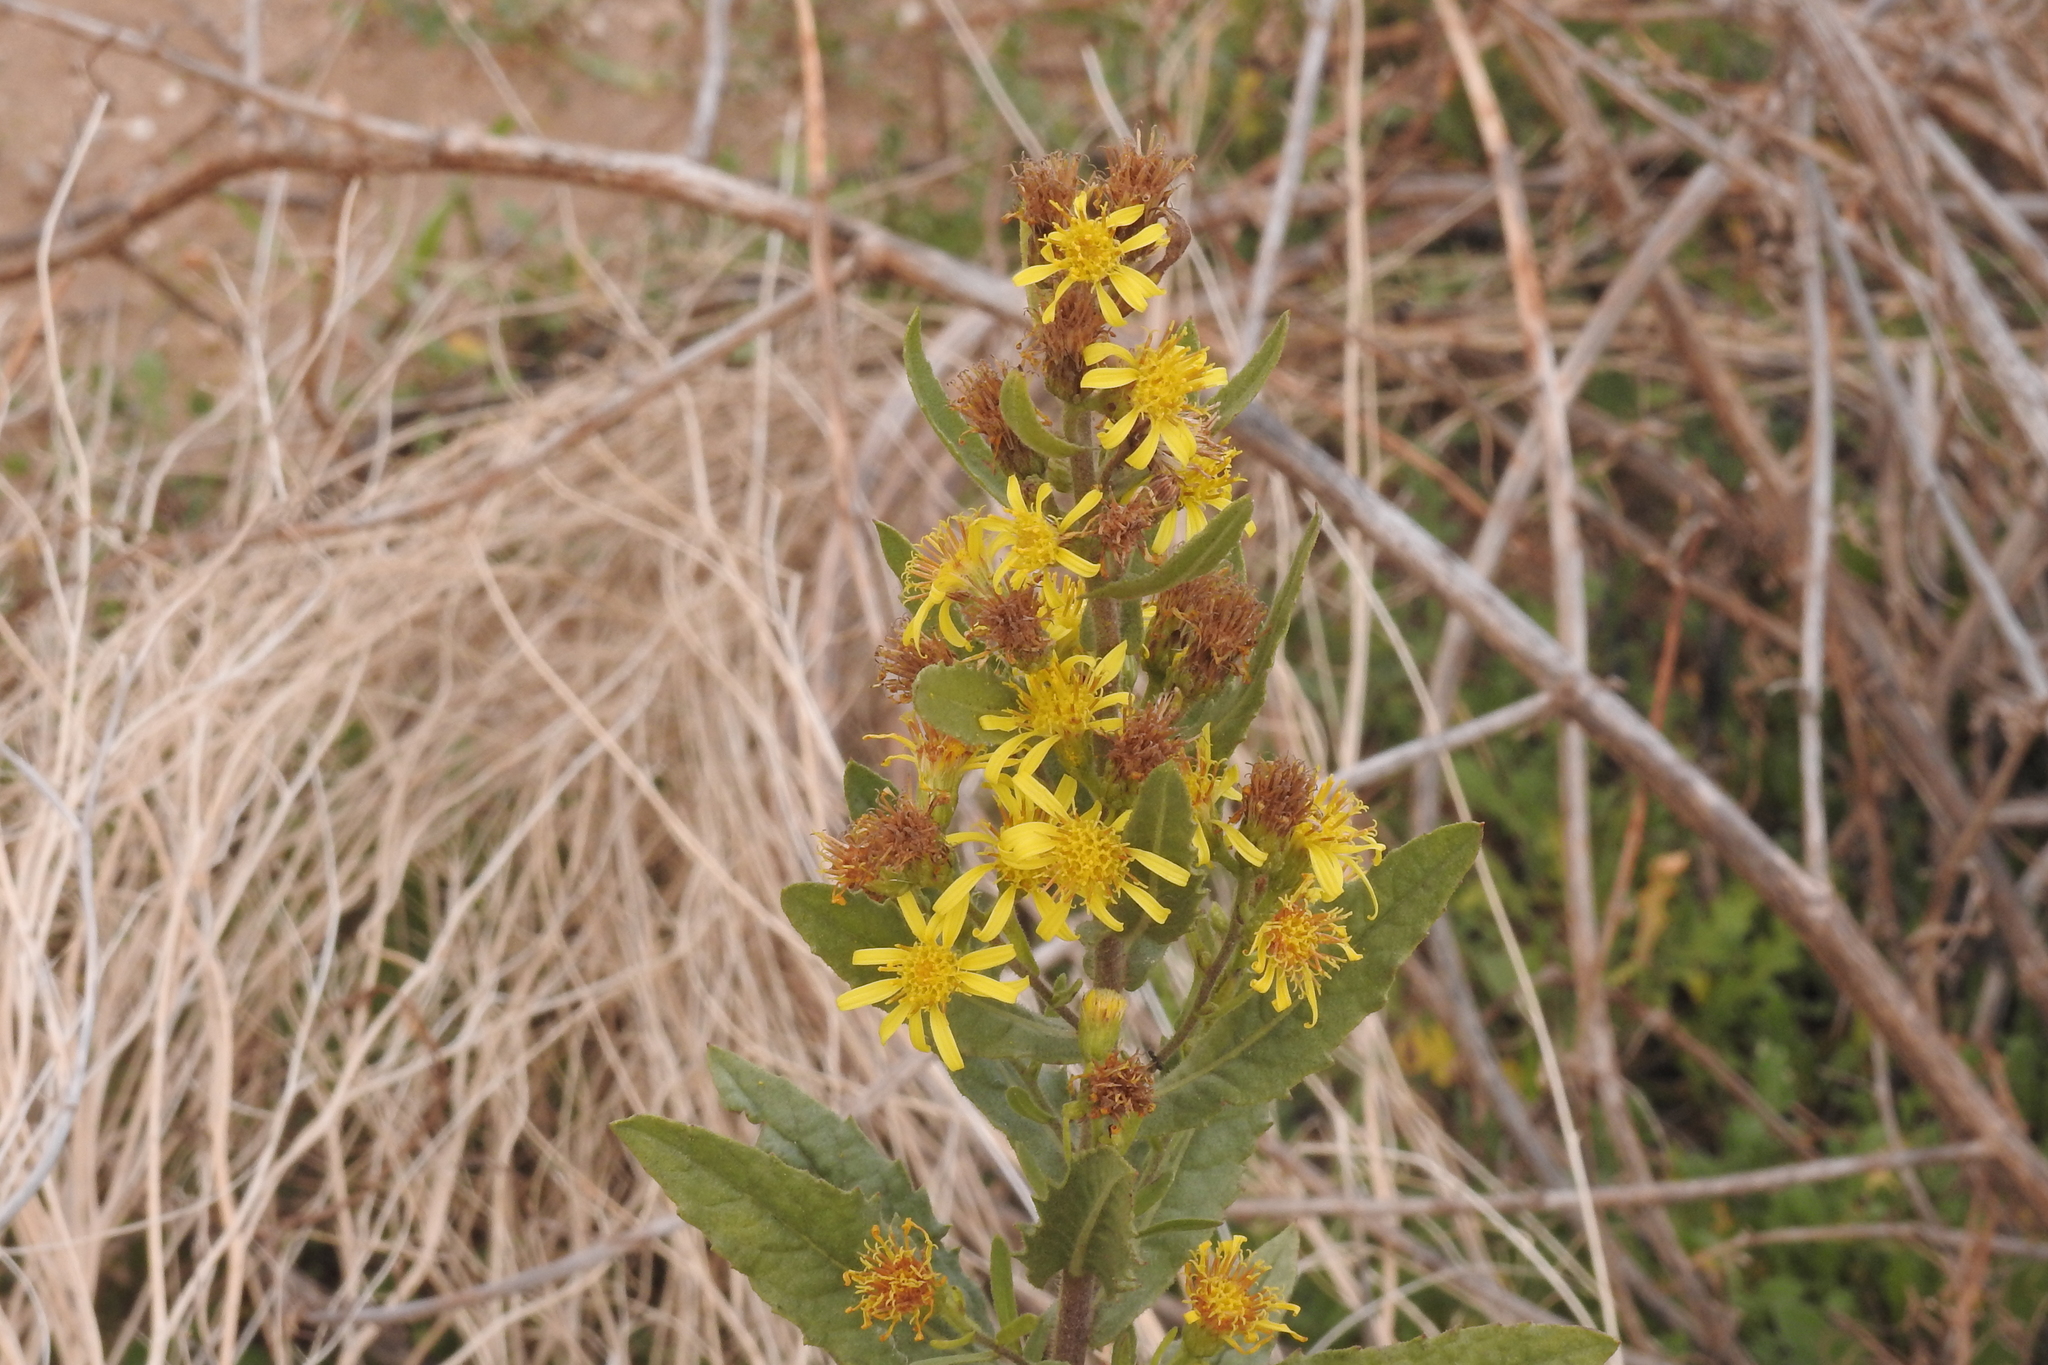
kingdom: Plantae
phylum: Tracheophyta
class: Magnoliopsida
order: Asterales
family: Asteraceae
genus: Dittrichia
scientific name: Dittrichia viscosa
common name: Woody fleabane
